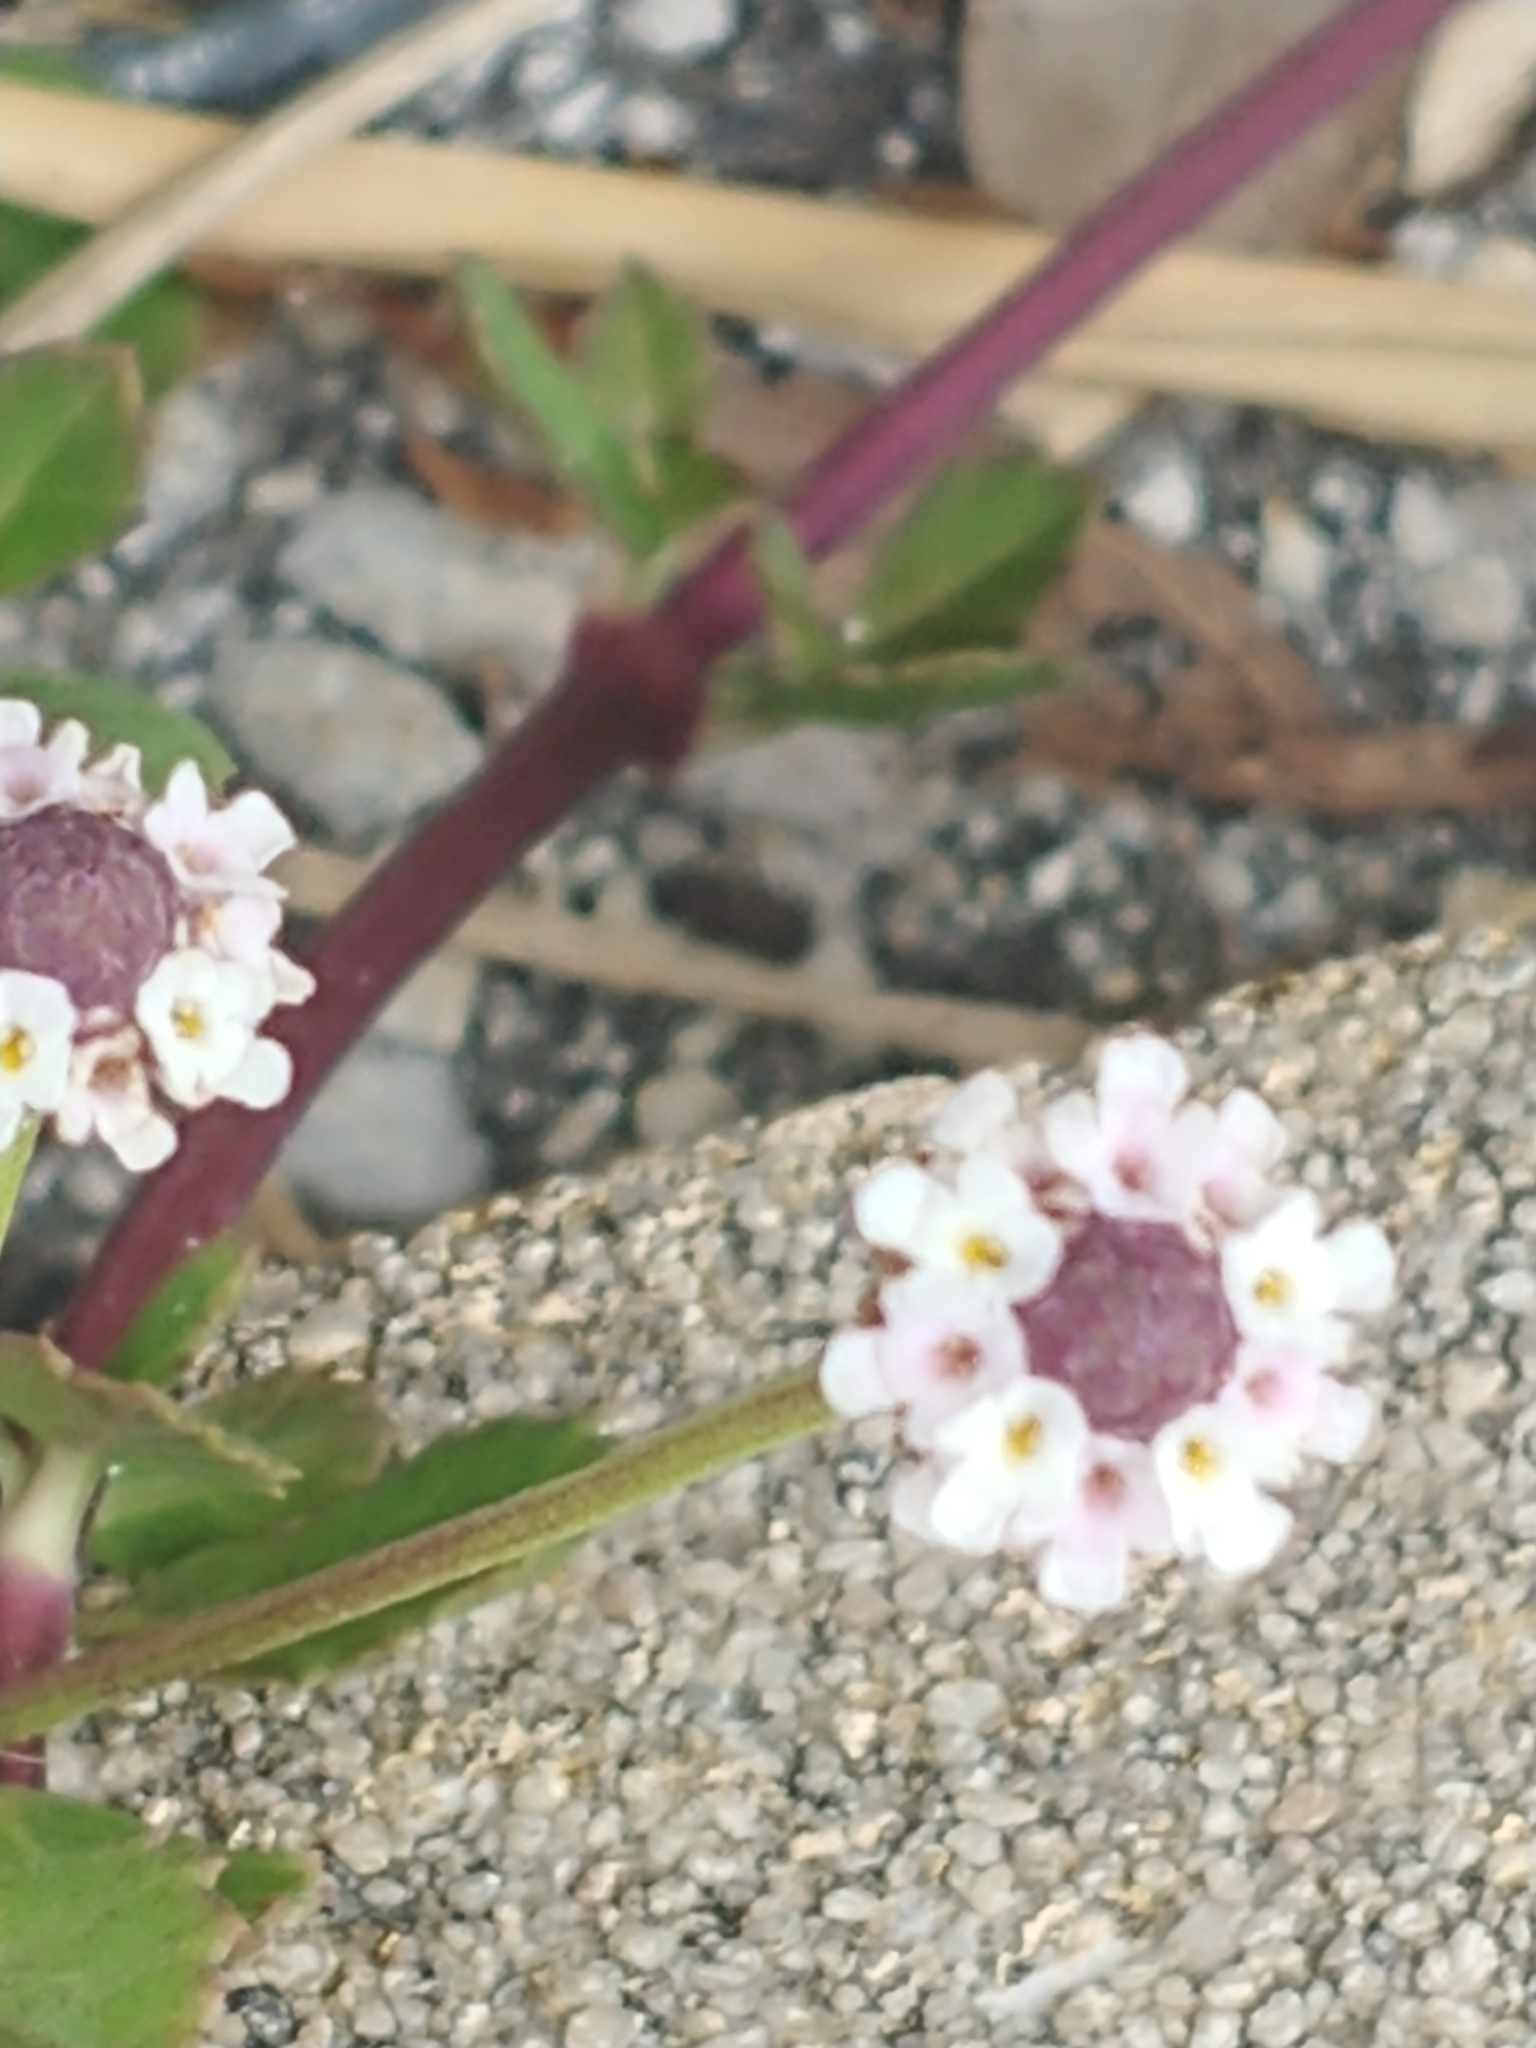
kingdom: Plantae
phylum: Tracheophyta
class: Magnoliopsida
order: Lamiales
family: Verbenaceae
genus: Phyla
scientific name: Phyla nodiflora
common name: Frogfruit
